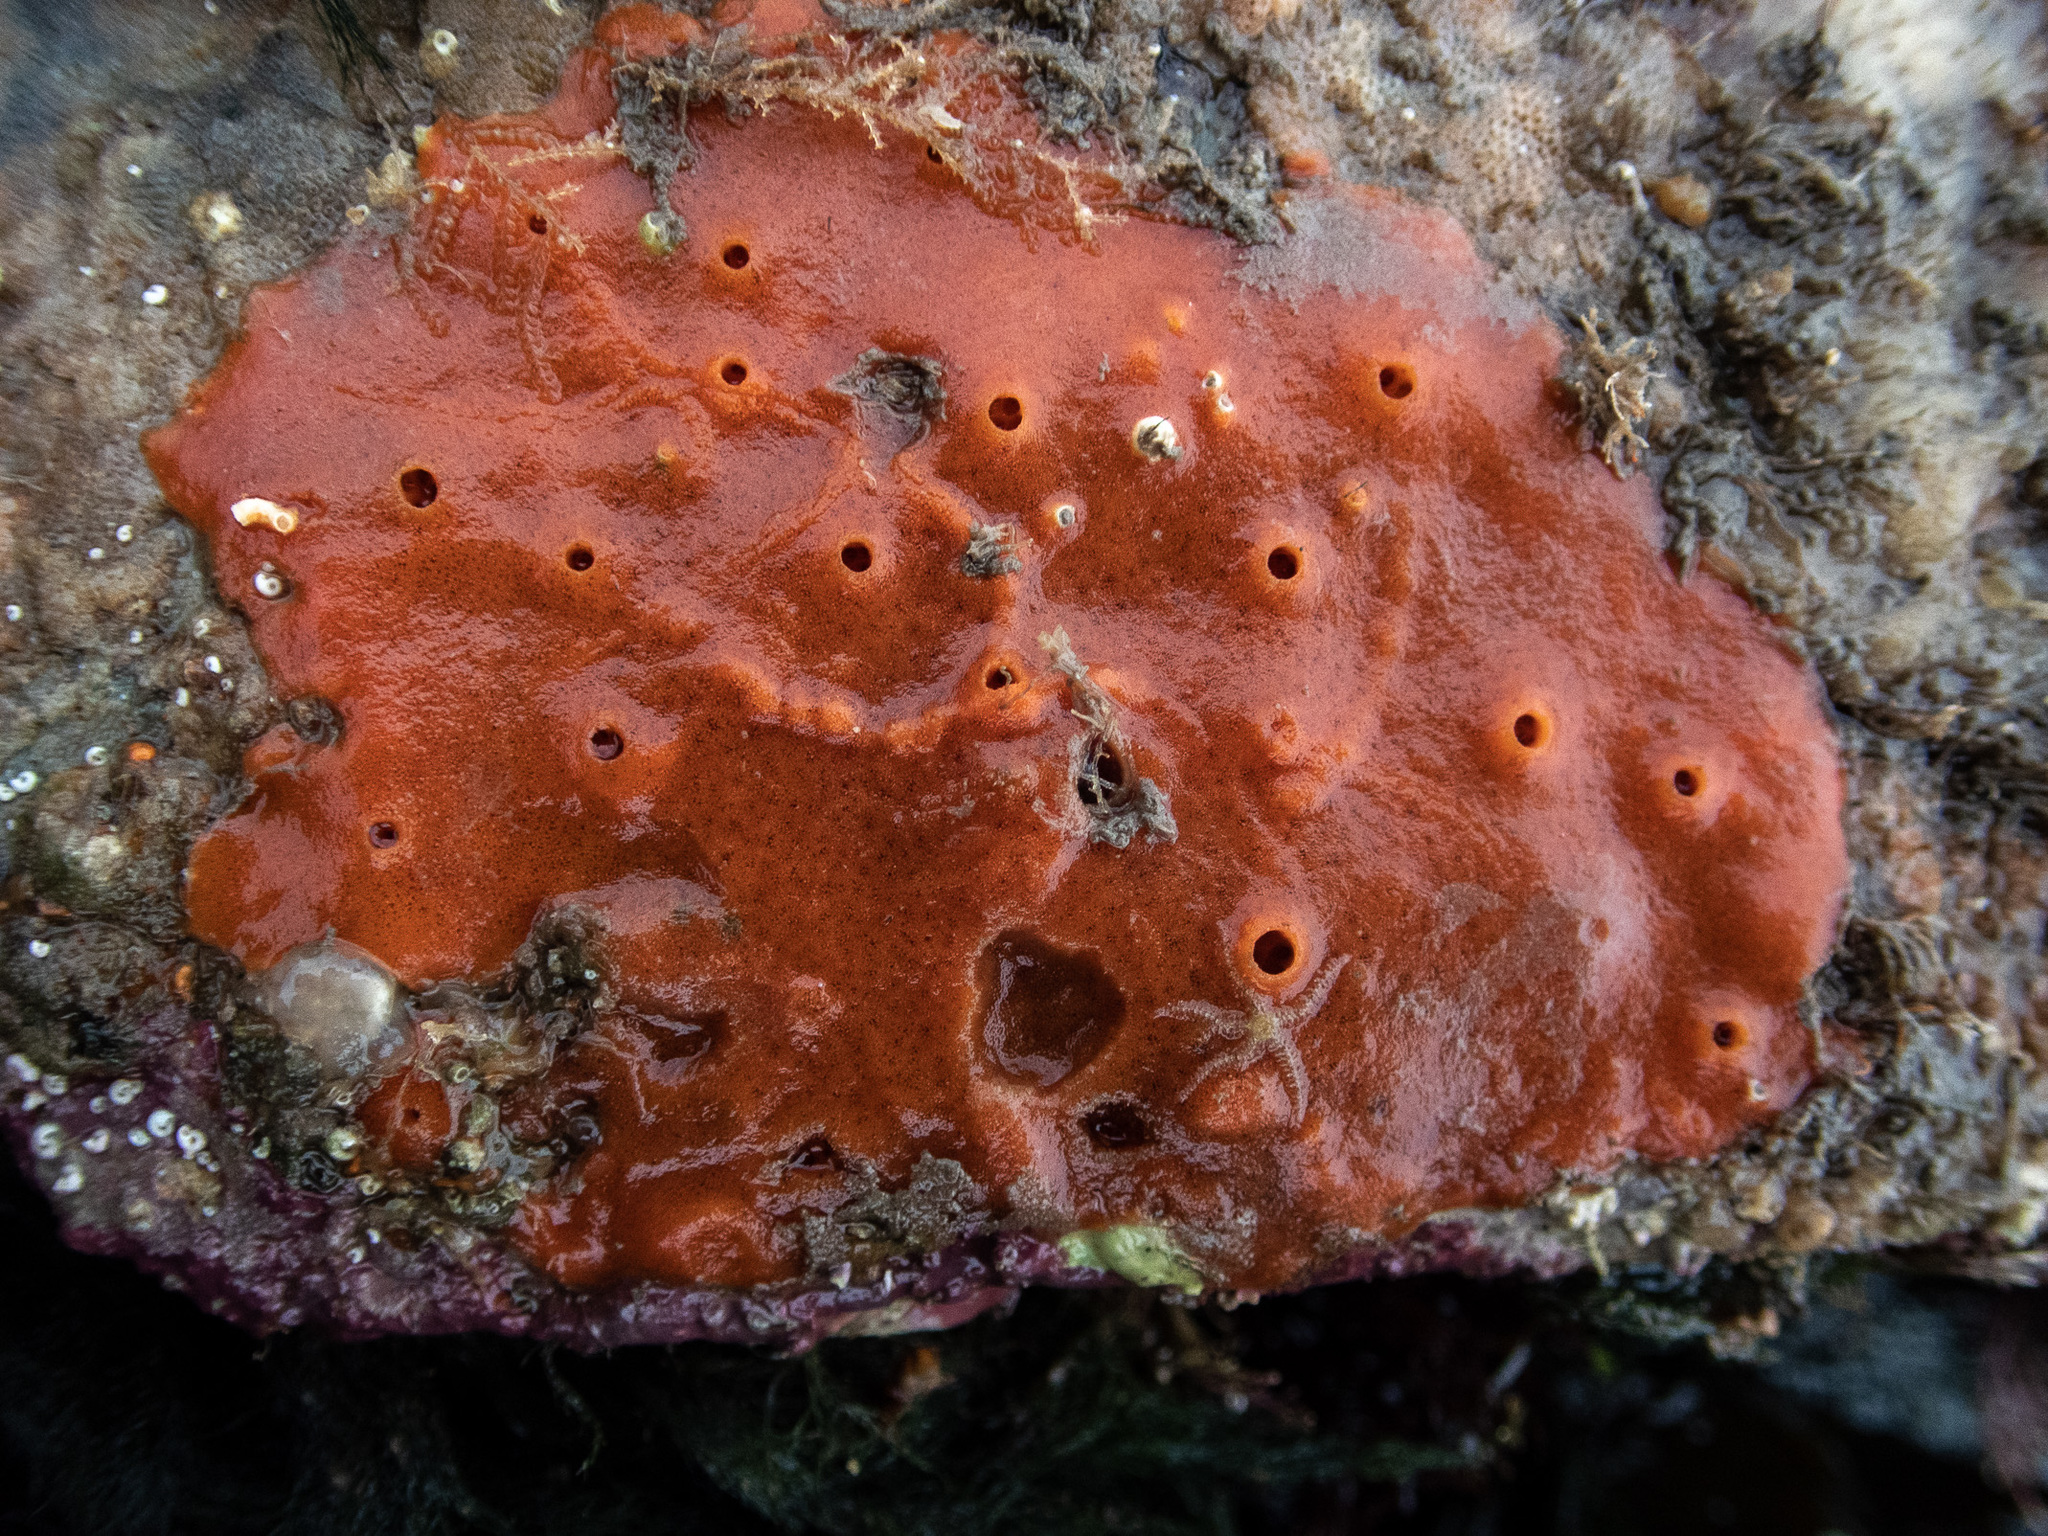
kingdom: Animalia
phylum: Porifera
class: Demospongiae
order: Poecilosclerida
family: Microcionidae
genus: Ophlitaspongia
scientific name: Ophlitaspongia papilla
